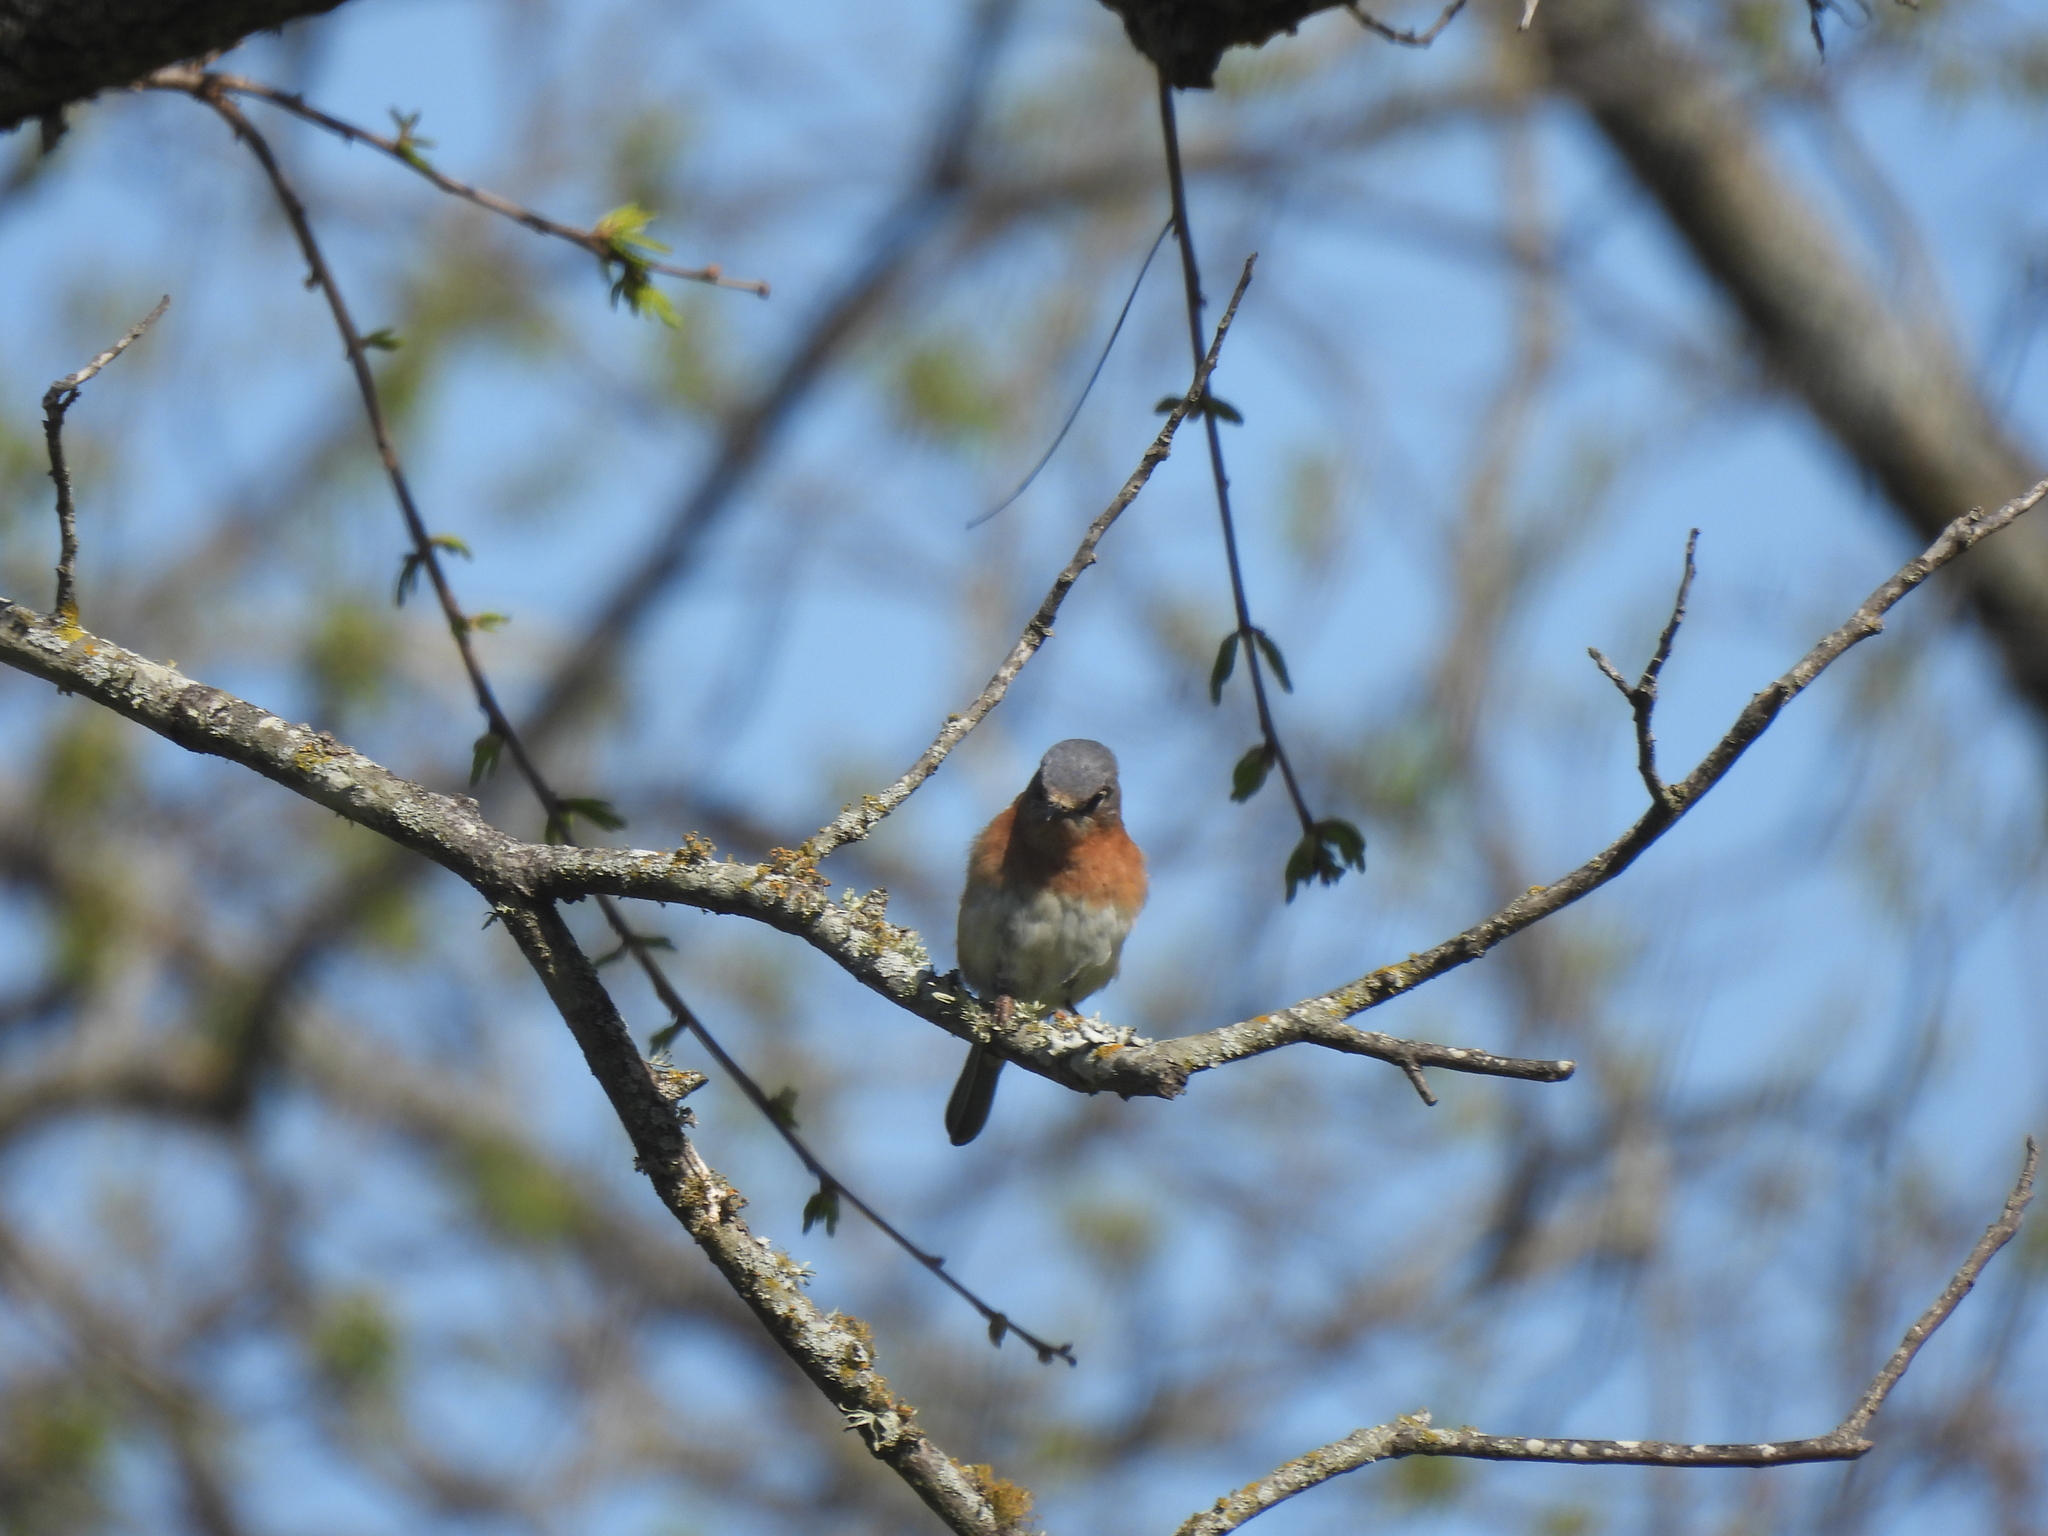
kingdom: Animalia
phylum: Chordata
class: Aves
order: Passeriformes
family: Turdidae
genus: Sialia
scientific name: Sialia sialis
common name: Eastern bluebird
